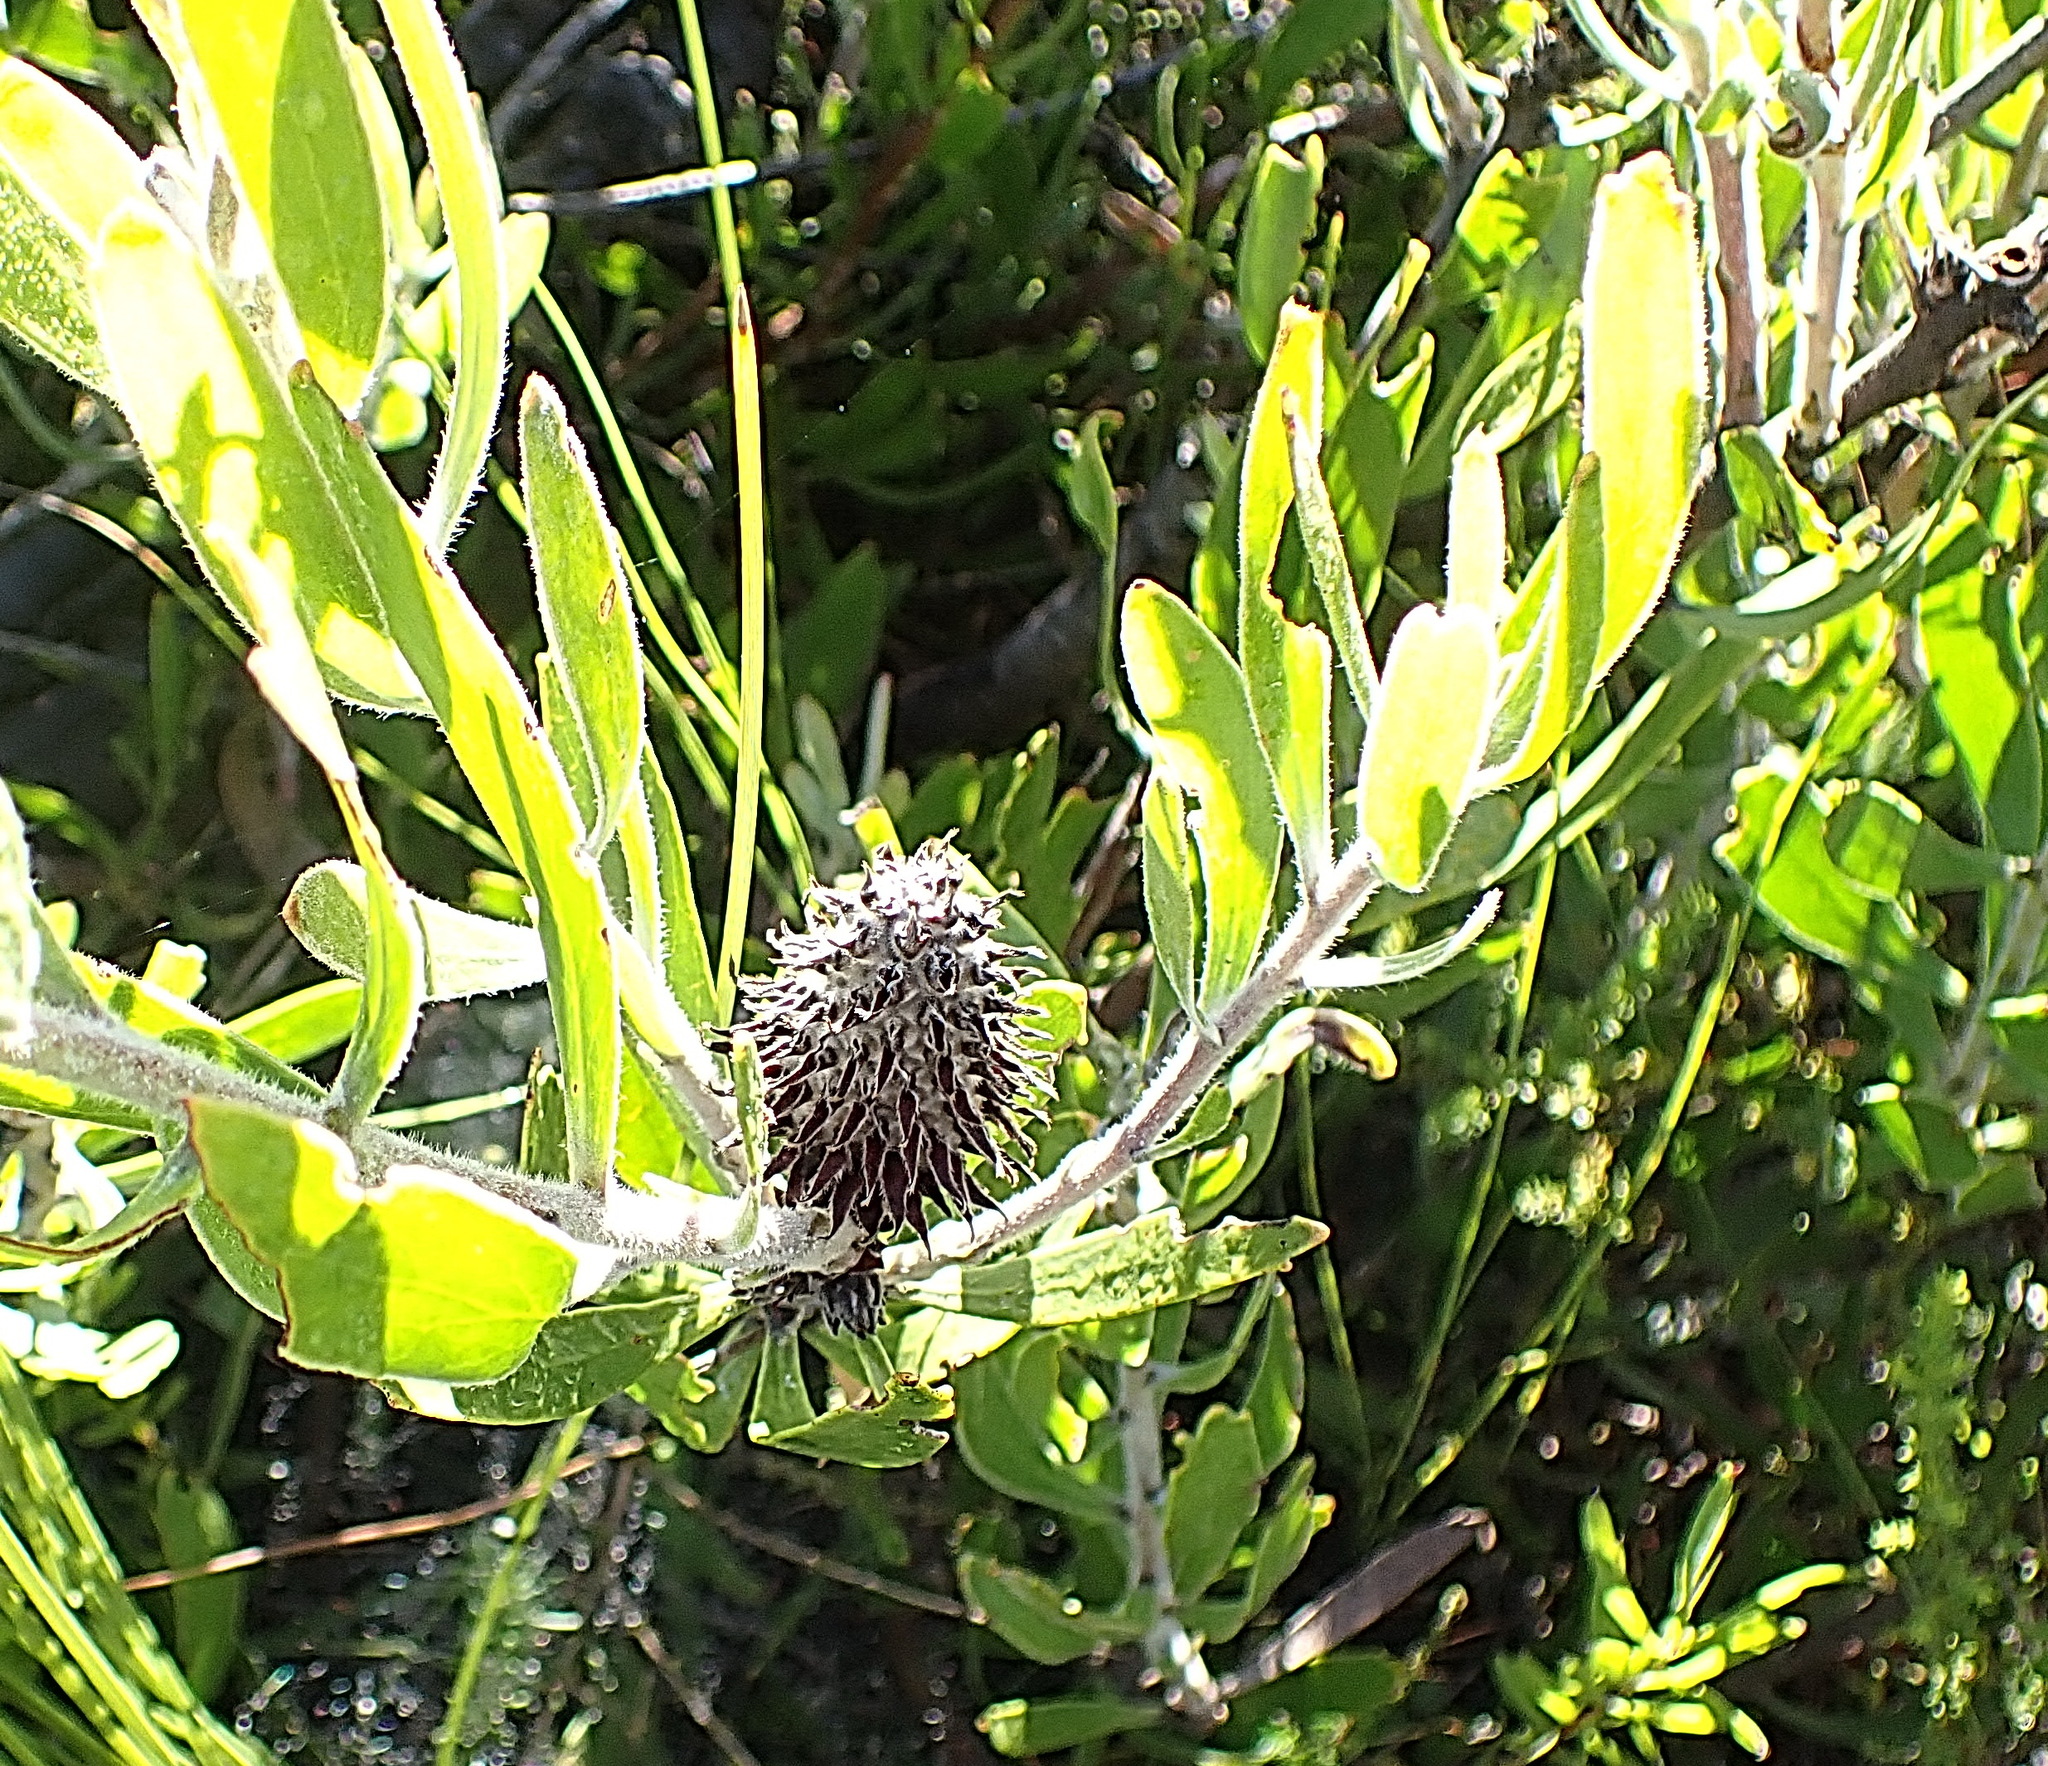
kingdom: Plantae
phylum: Tracheophyta
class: Magnoliopsida
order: Proteales
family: Proteaceae
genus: Leucospermum
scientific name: Leucospermum cuneiforme
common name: Common pincushion
